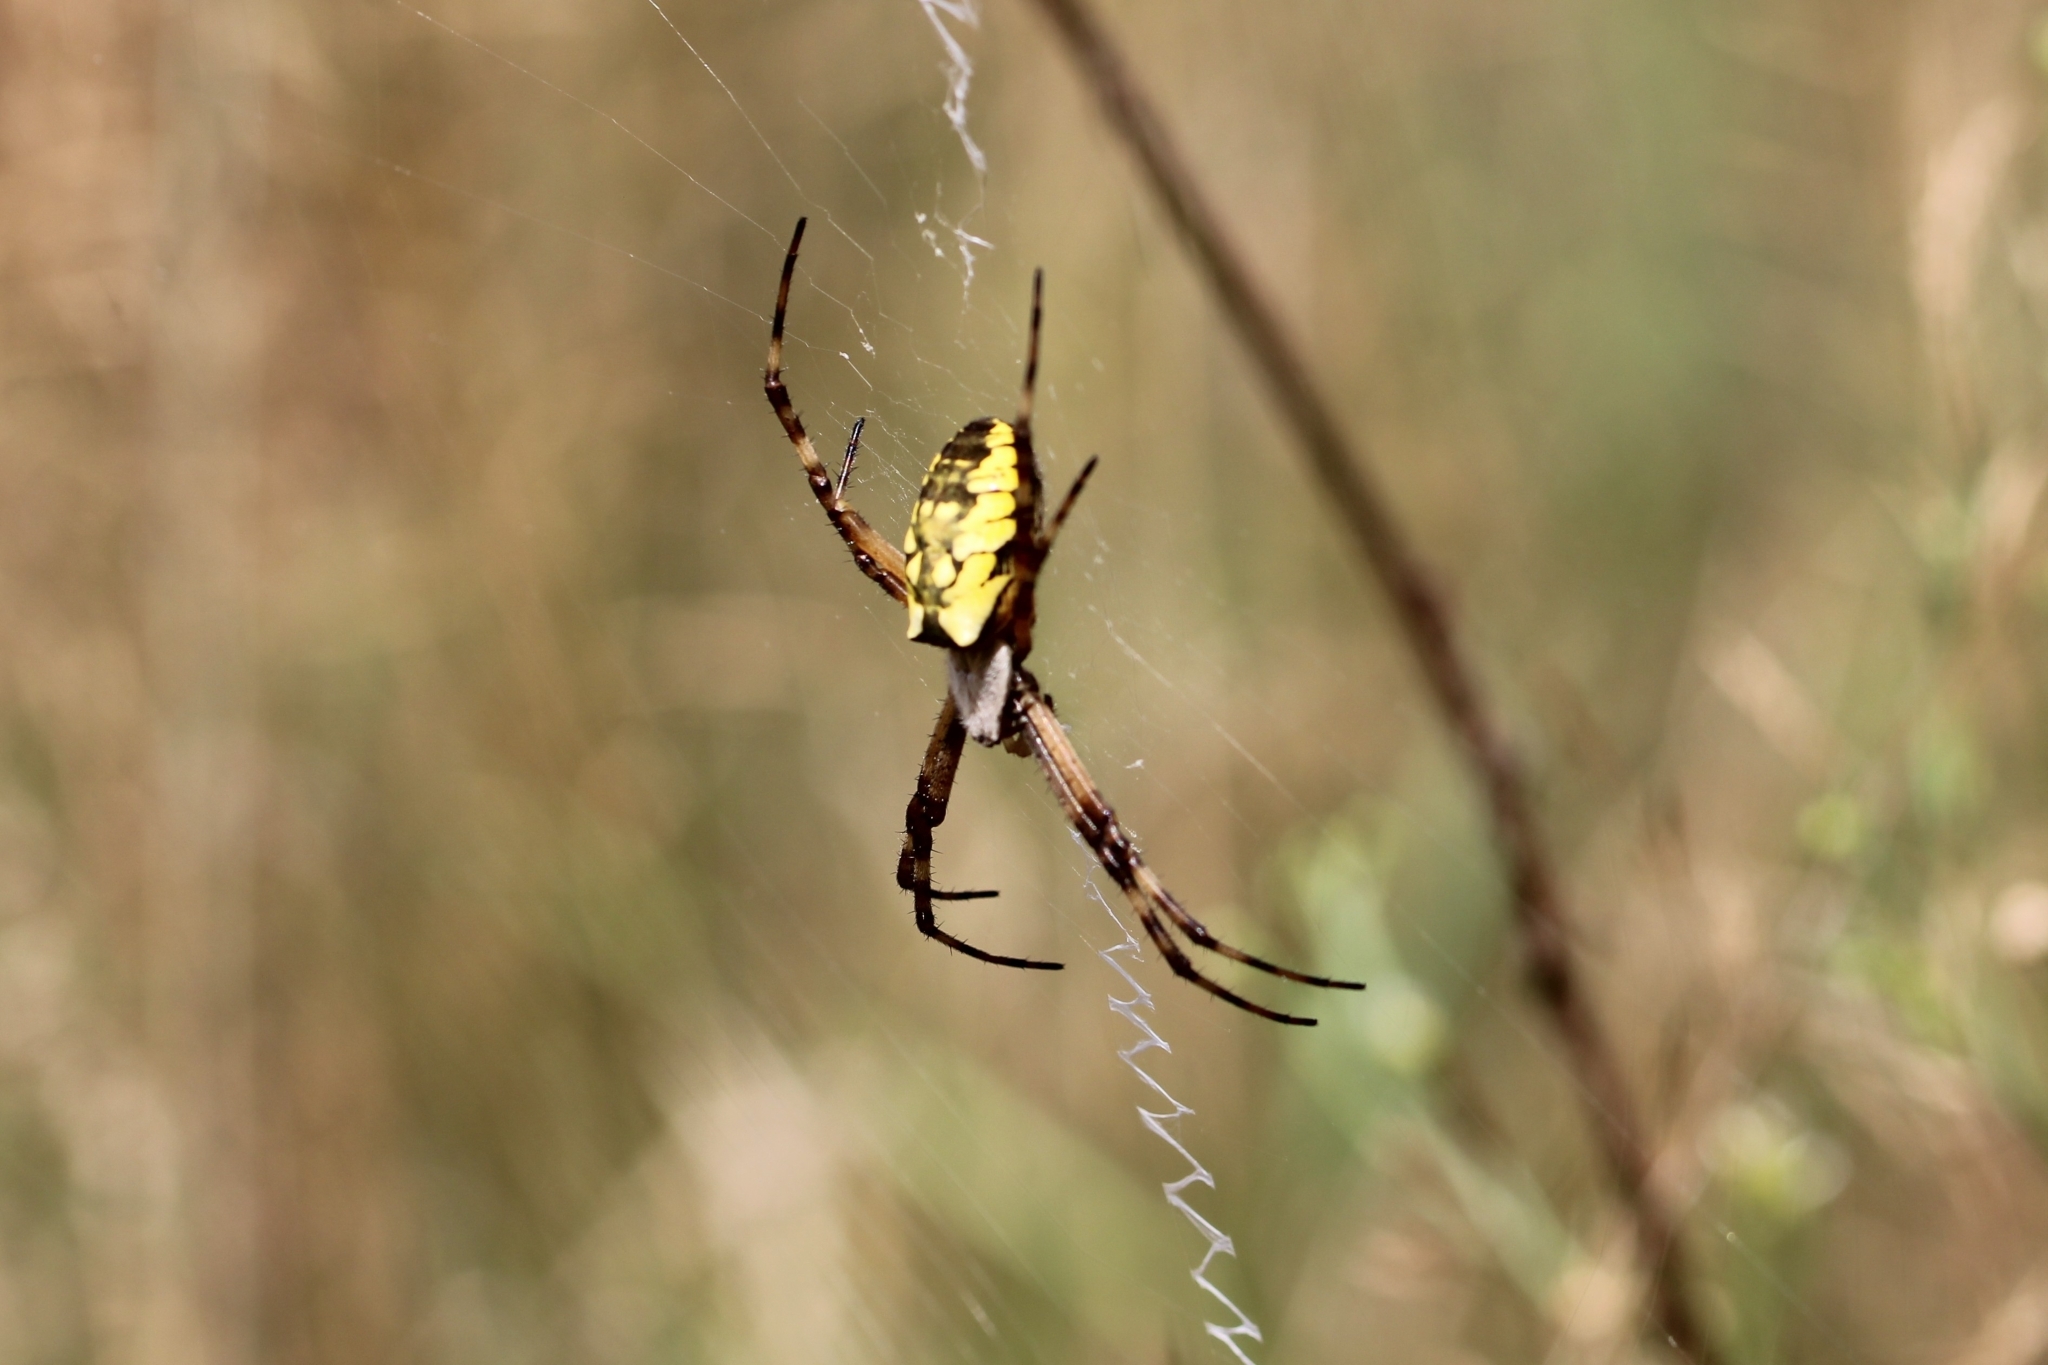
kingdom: Animalia
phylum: Arthropoda
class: Arachnida
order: Araneae
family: Araneidae
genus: Argiope
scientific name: Argiope aurantia
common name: Orb weavers
